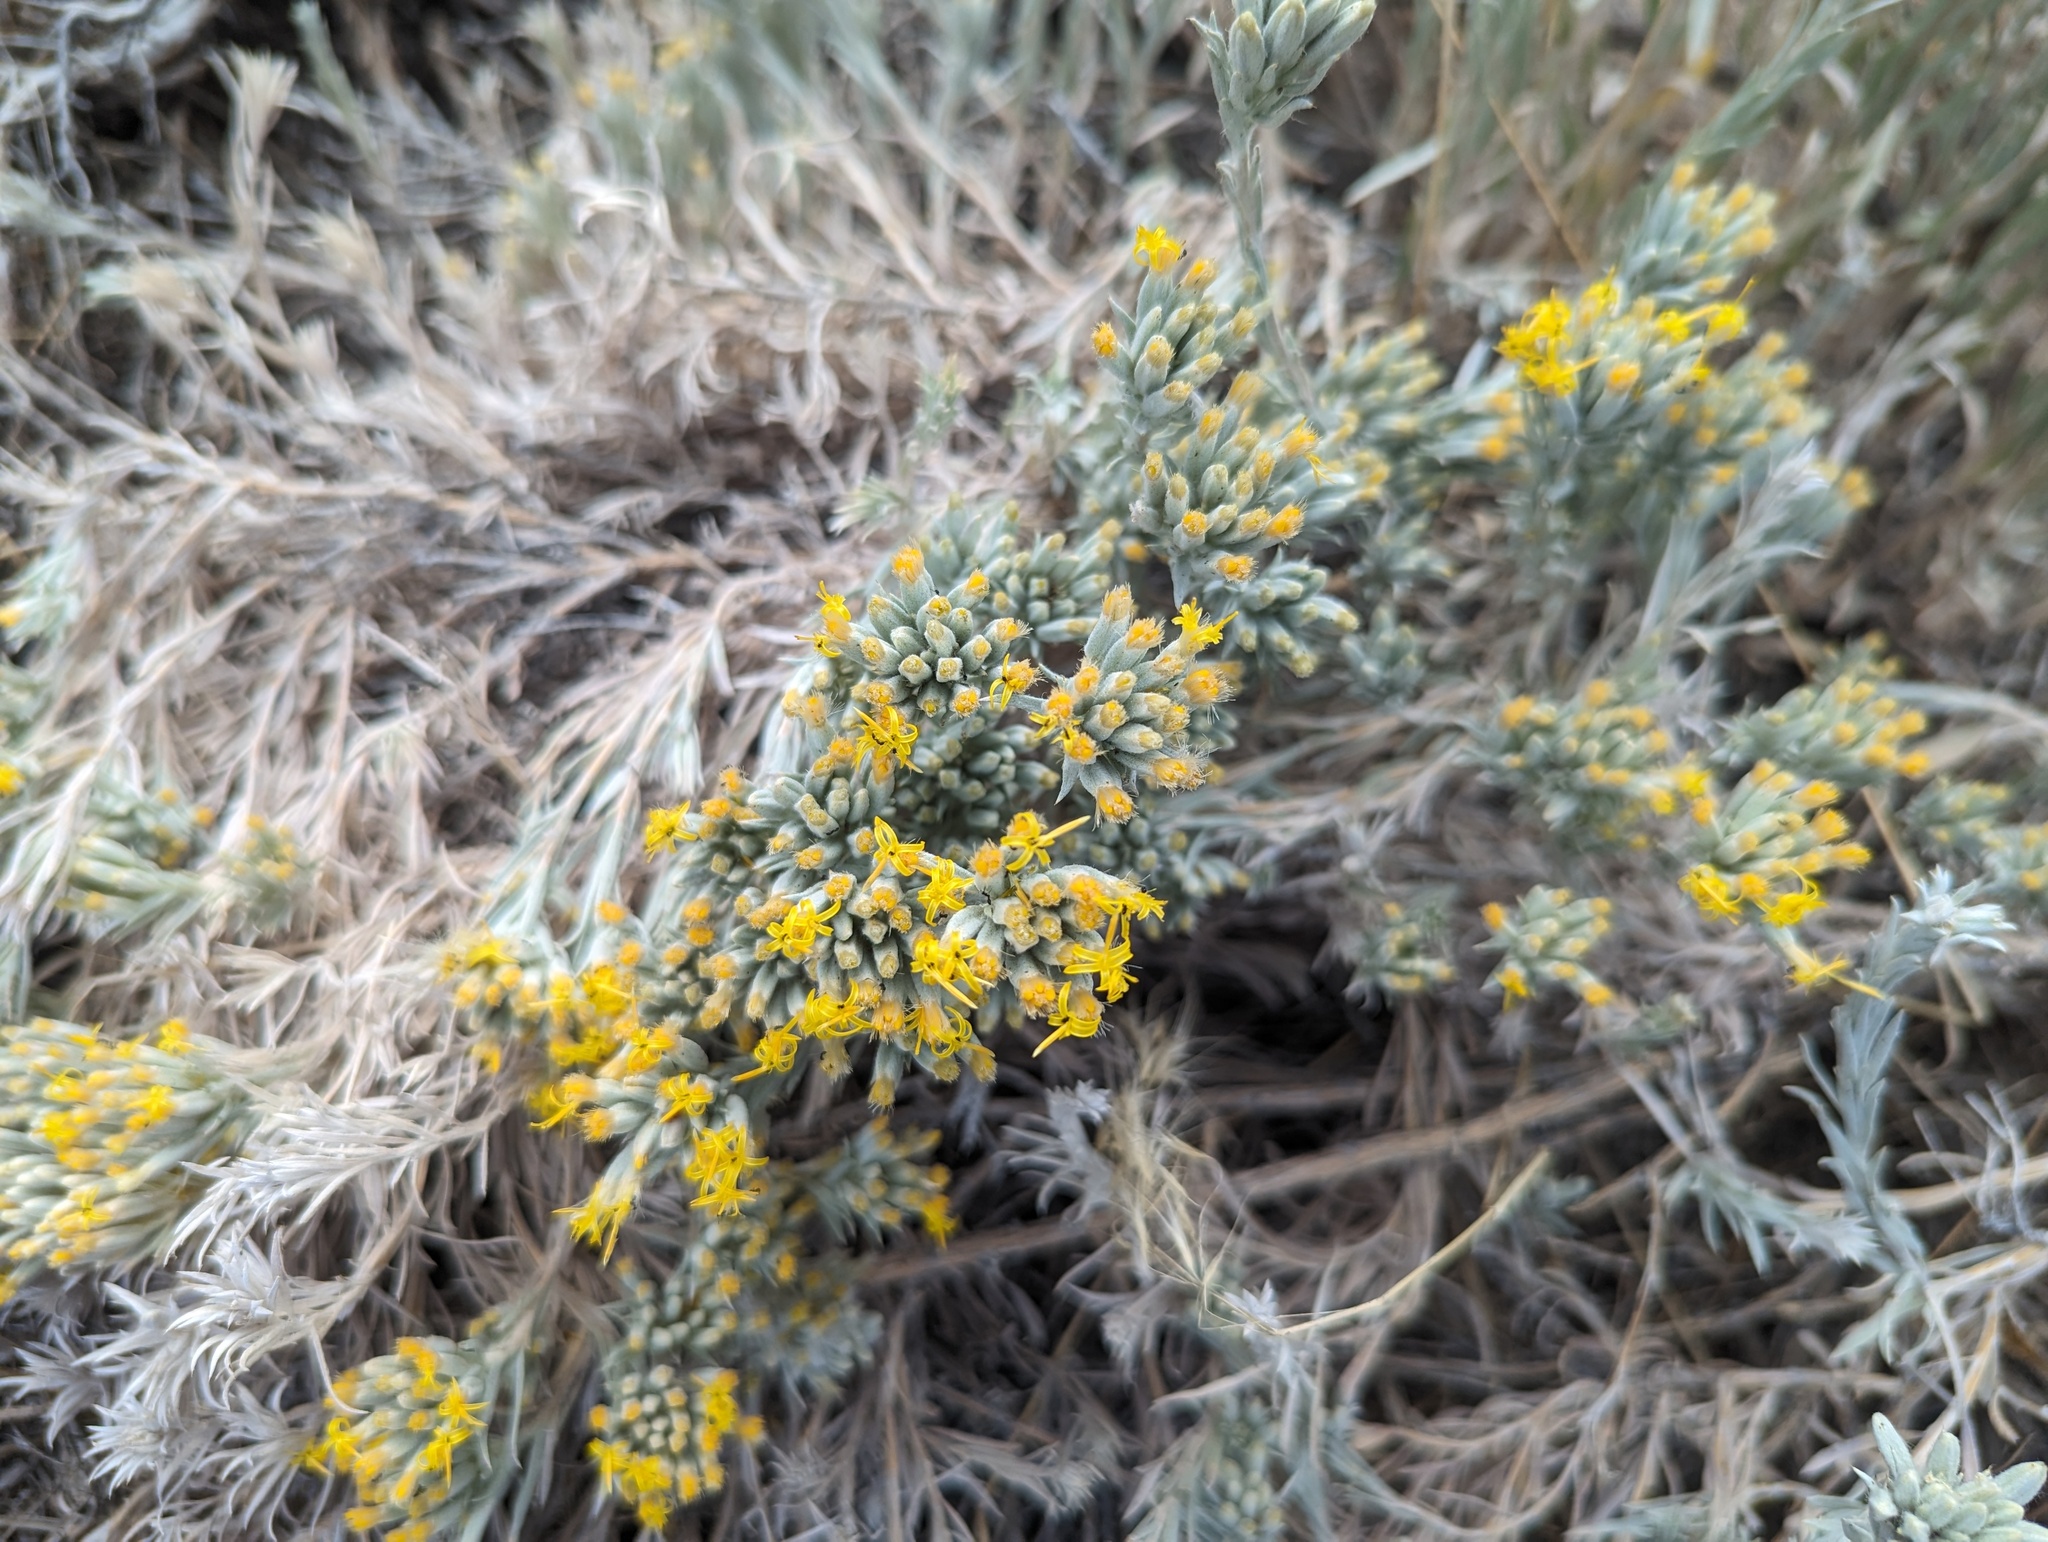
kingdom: Plantae
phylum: Tracheophyta
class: Magnoliopsida
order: Asterales
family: Asteraceae
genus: Tetradymia
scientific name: Tetradymia canescens
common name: Spineless horsebrush
